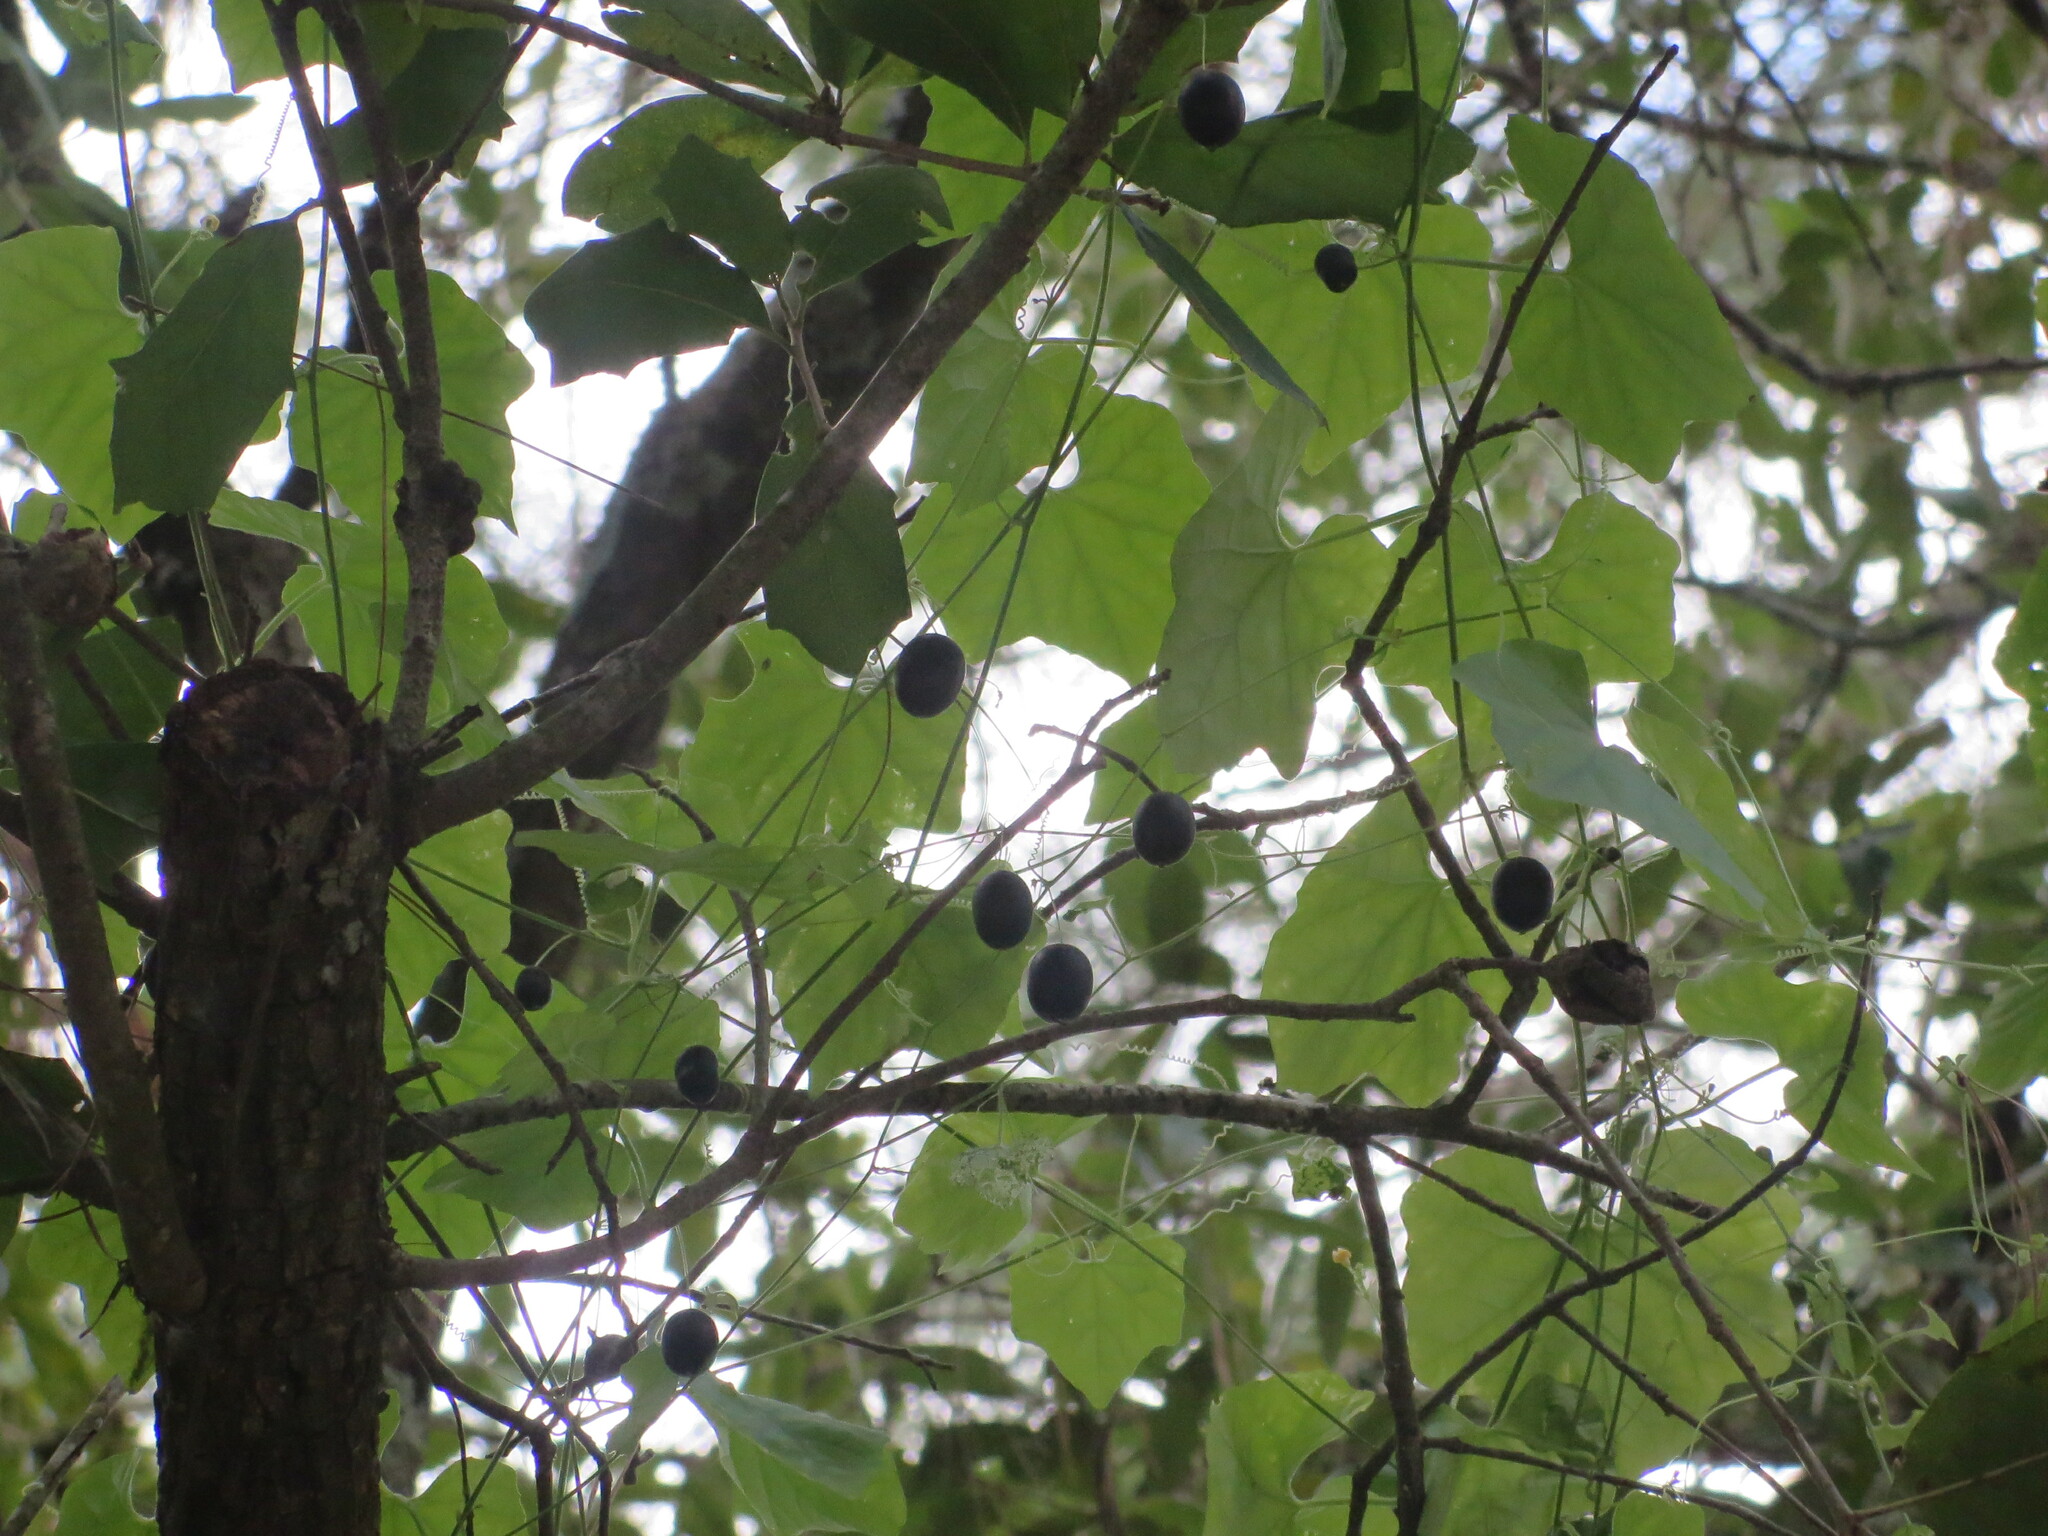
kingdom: Plantae
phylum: Tracheophyta
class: Magnoliopsida
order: Cucurbitales
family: Cucurbitaceae
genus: Melothria
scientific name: Melothria pendula
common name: Creeping-cucumber
